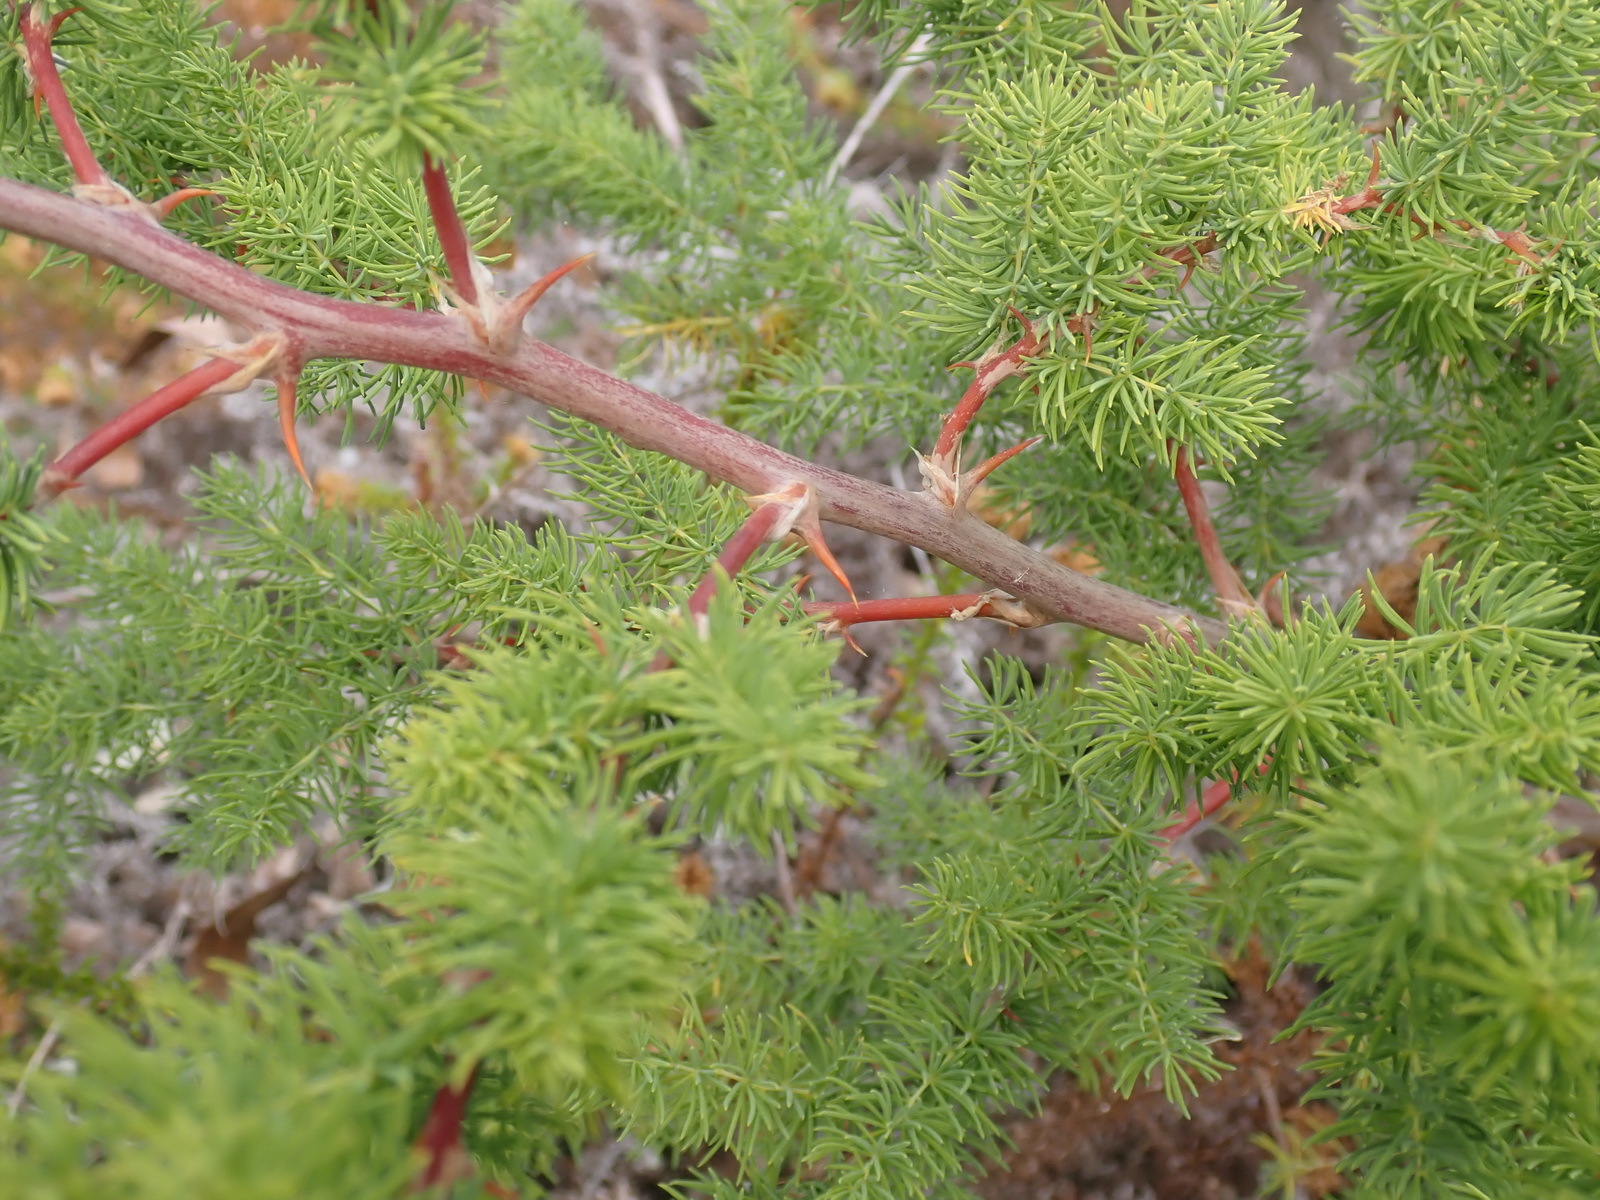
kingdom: Plantae
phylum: Tracheophyta
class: Liliopsida
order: Asparagales
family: Asparagaceae
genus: Asparagus
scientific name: Asparagus rubicundus
